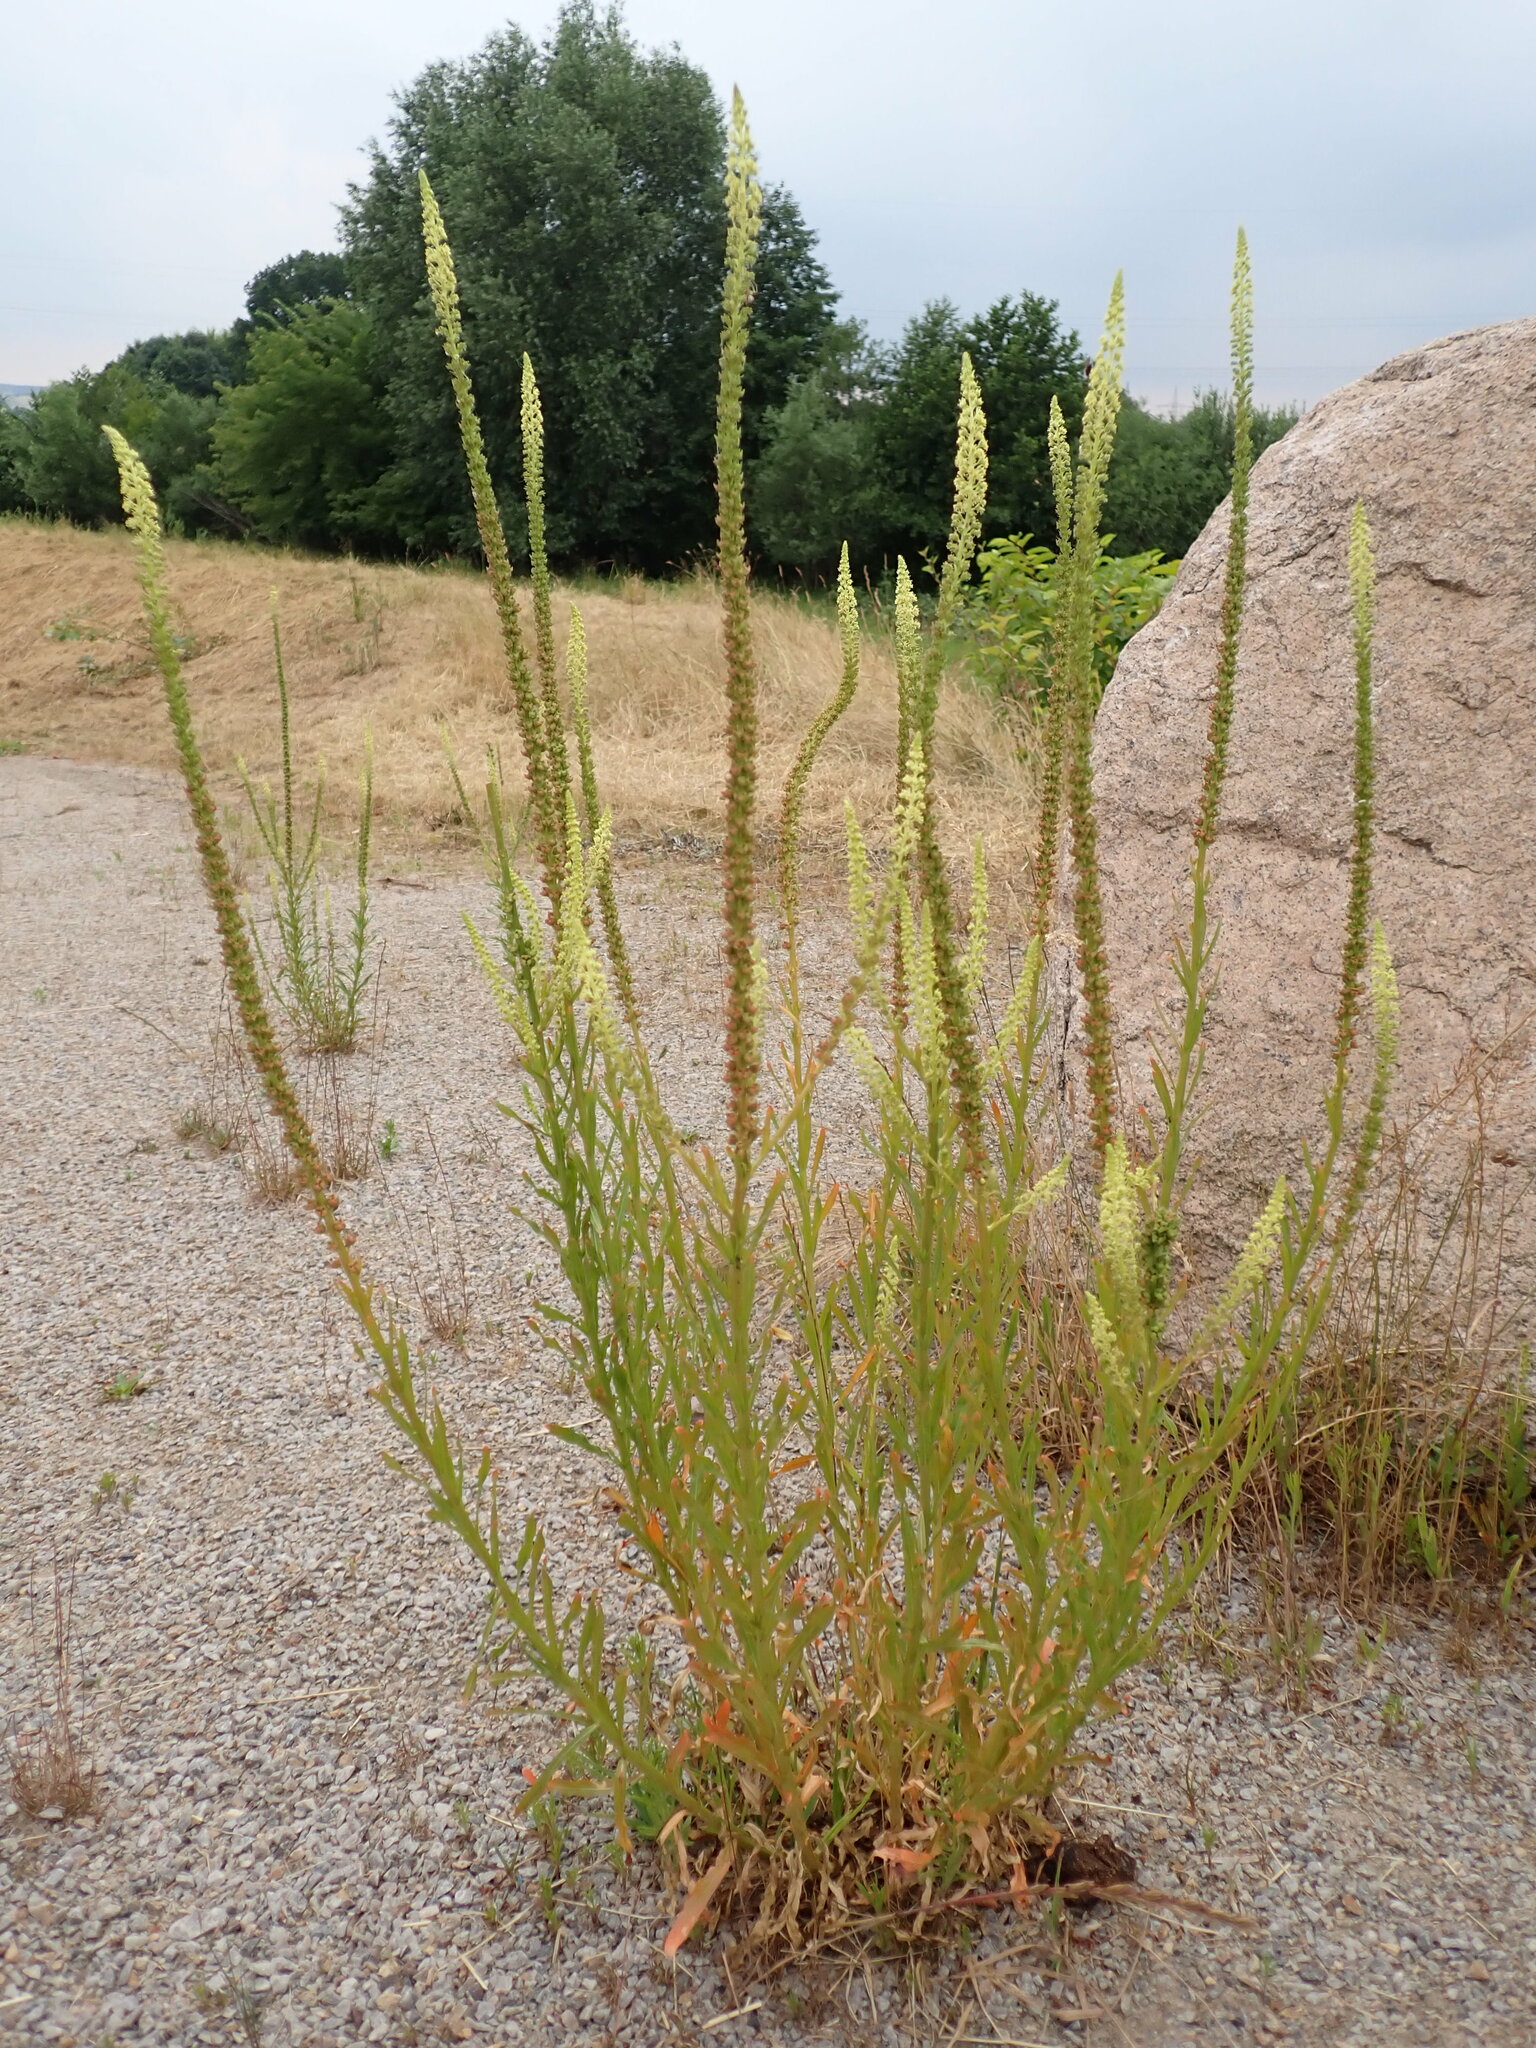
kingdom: Plantae
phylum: Tracheophyta
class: Magnoliopsida
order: Brassicales
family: Resedaceae
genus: Reseda
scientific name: Reseda luteola
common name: Weld
